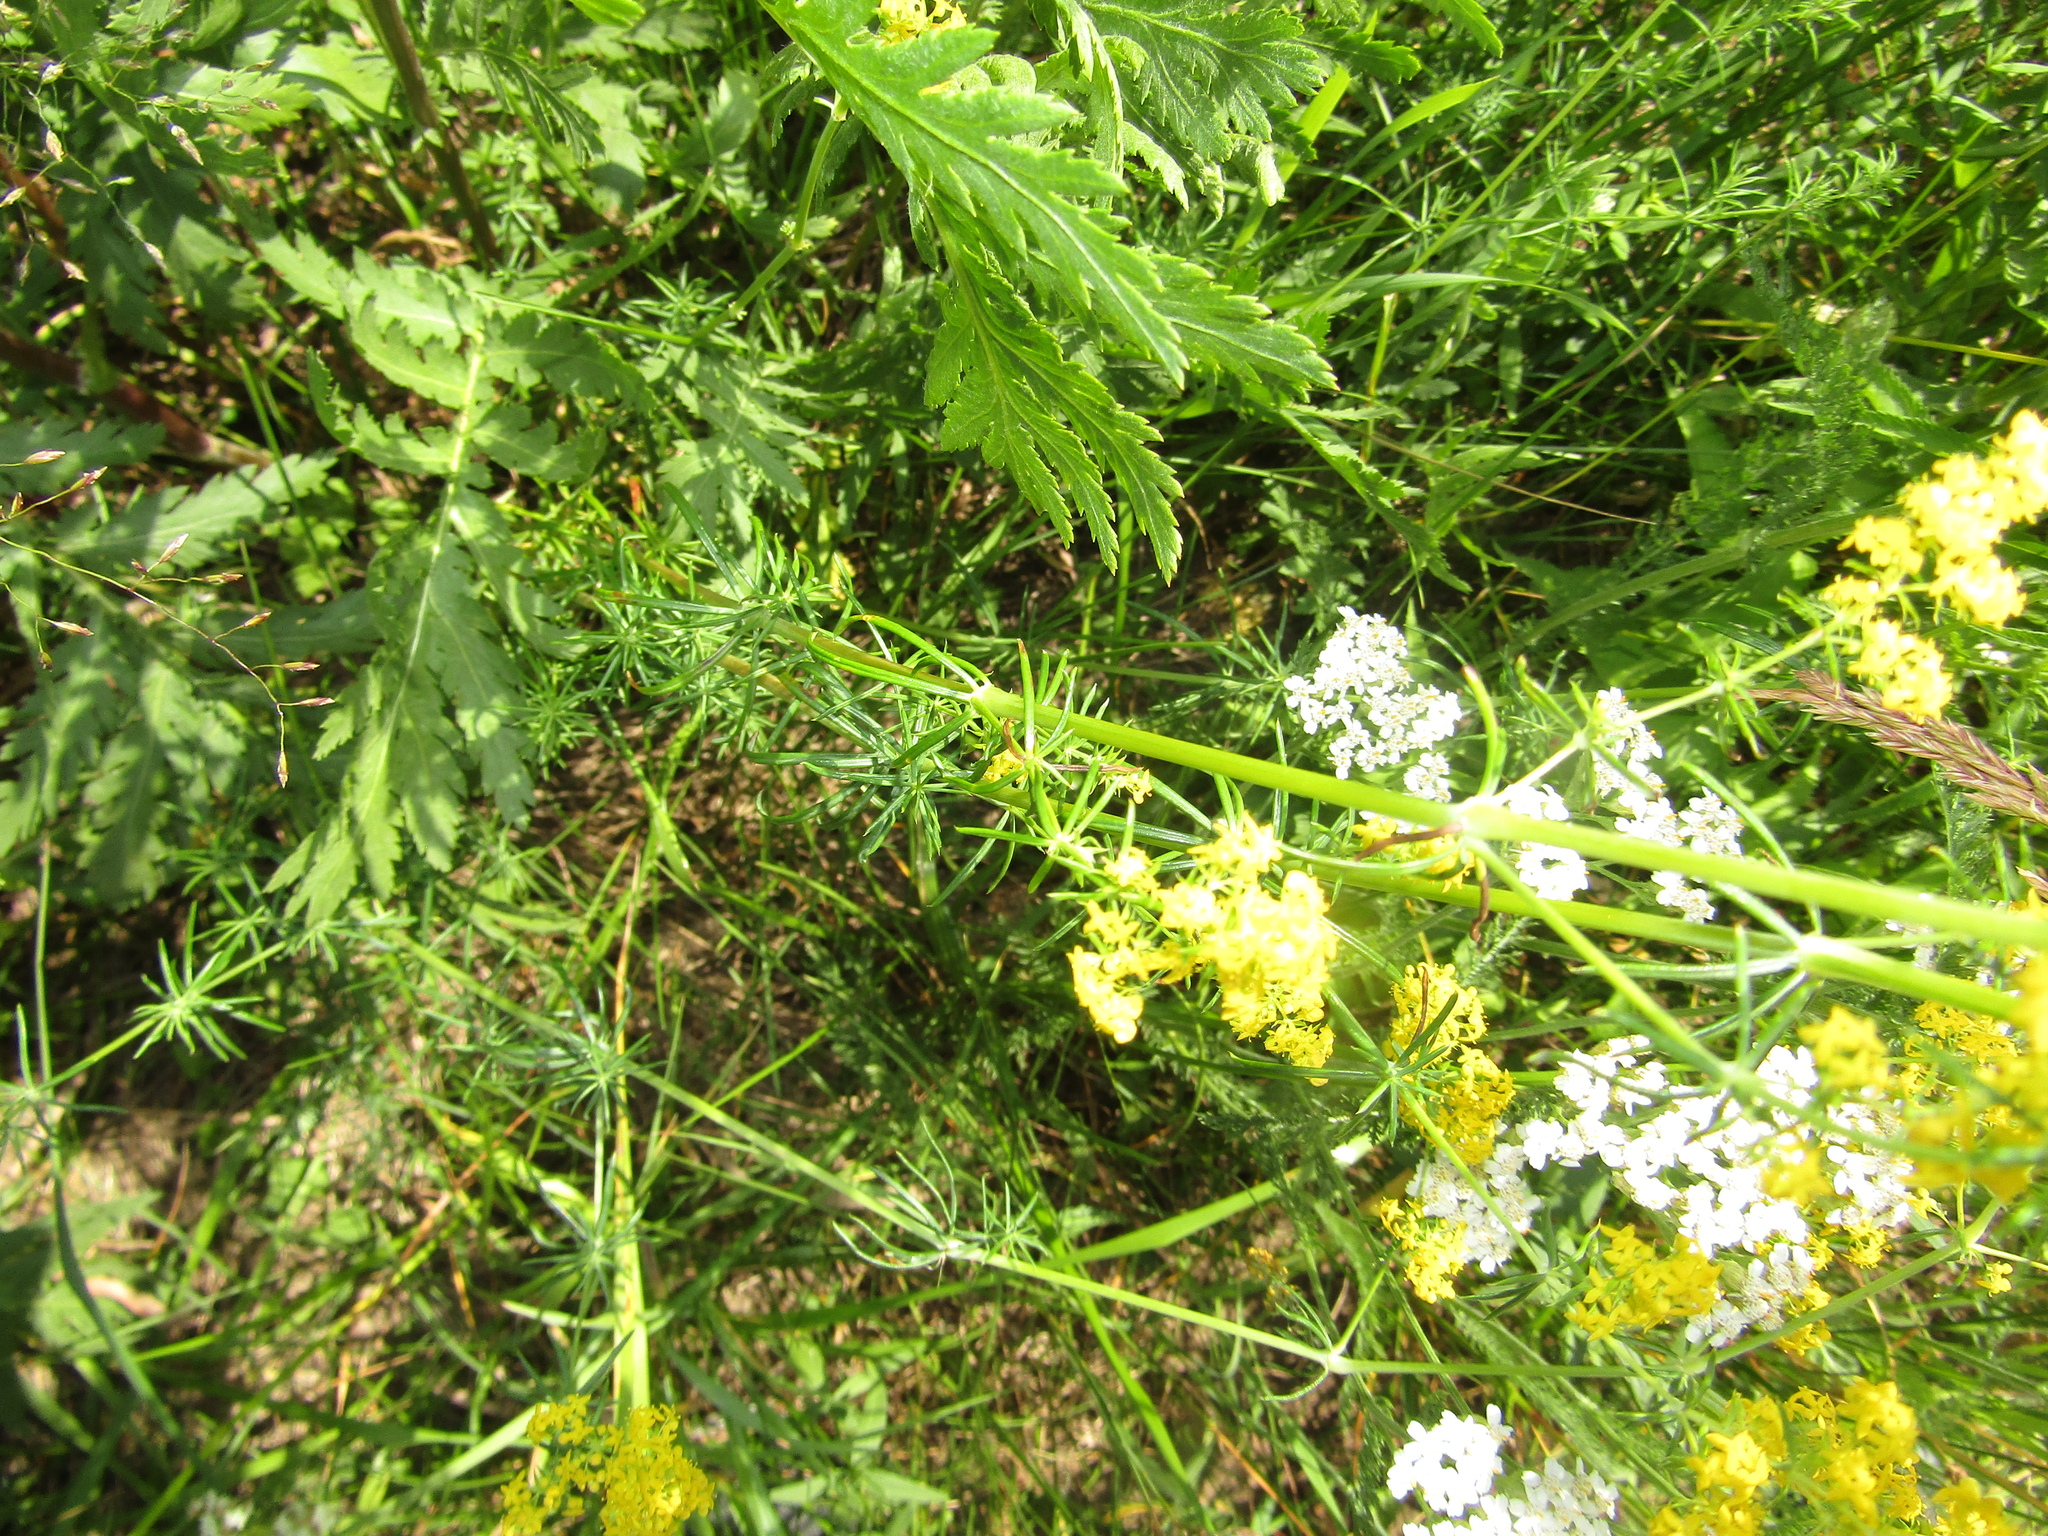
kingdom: Plantae
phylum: Tracheophyta
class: Magnoliopsida
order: Gentianales
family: Rubiaceae
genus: Galium
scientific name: Galium verum
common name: Lady's bedstraw
